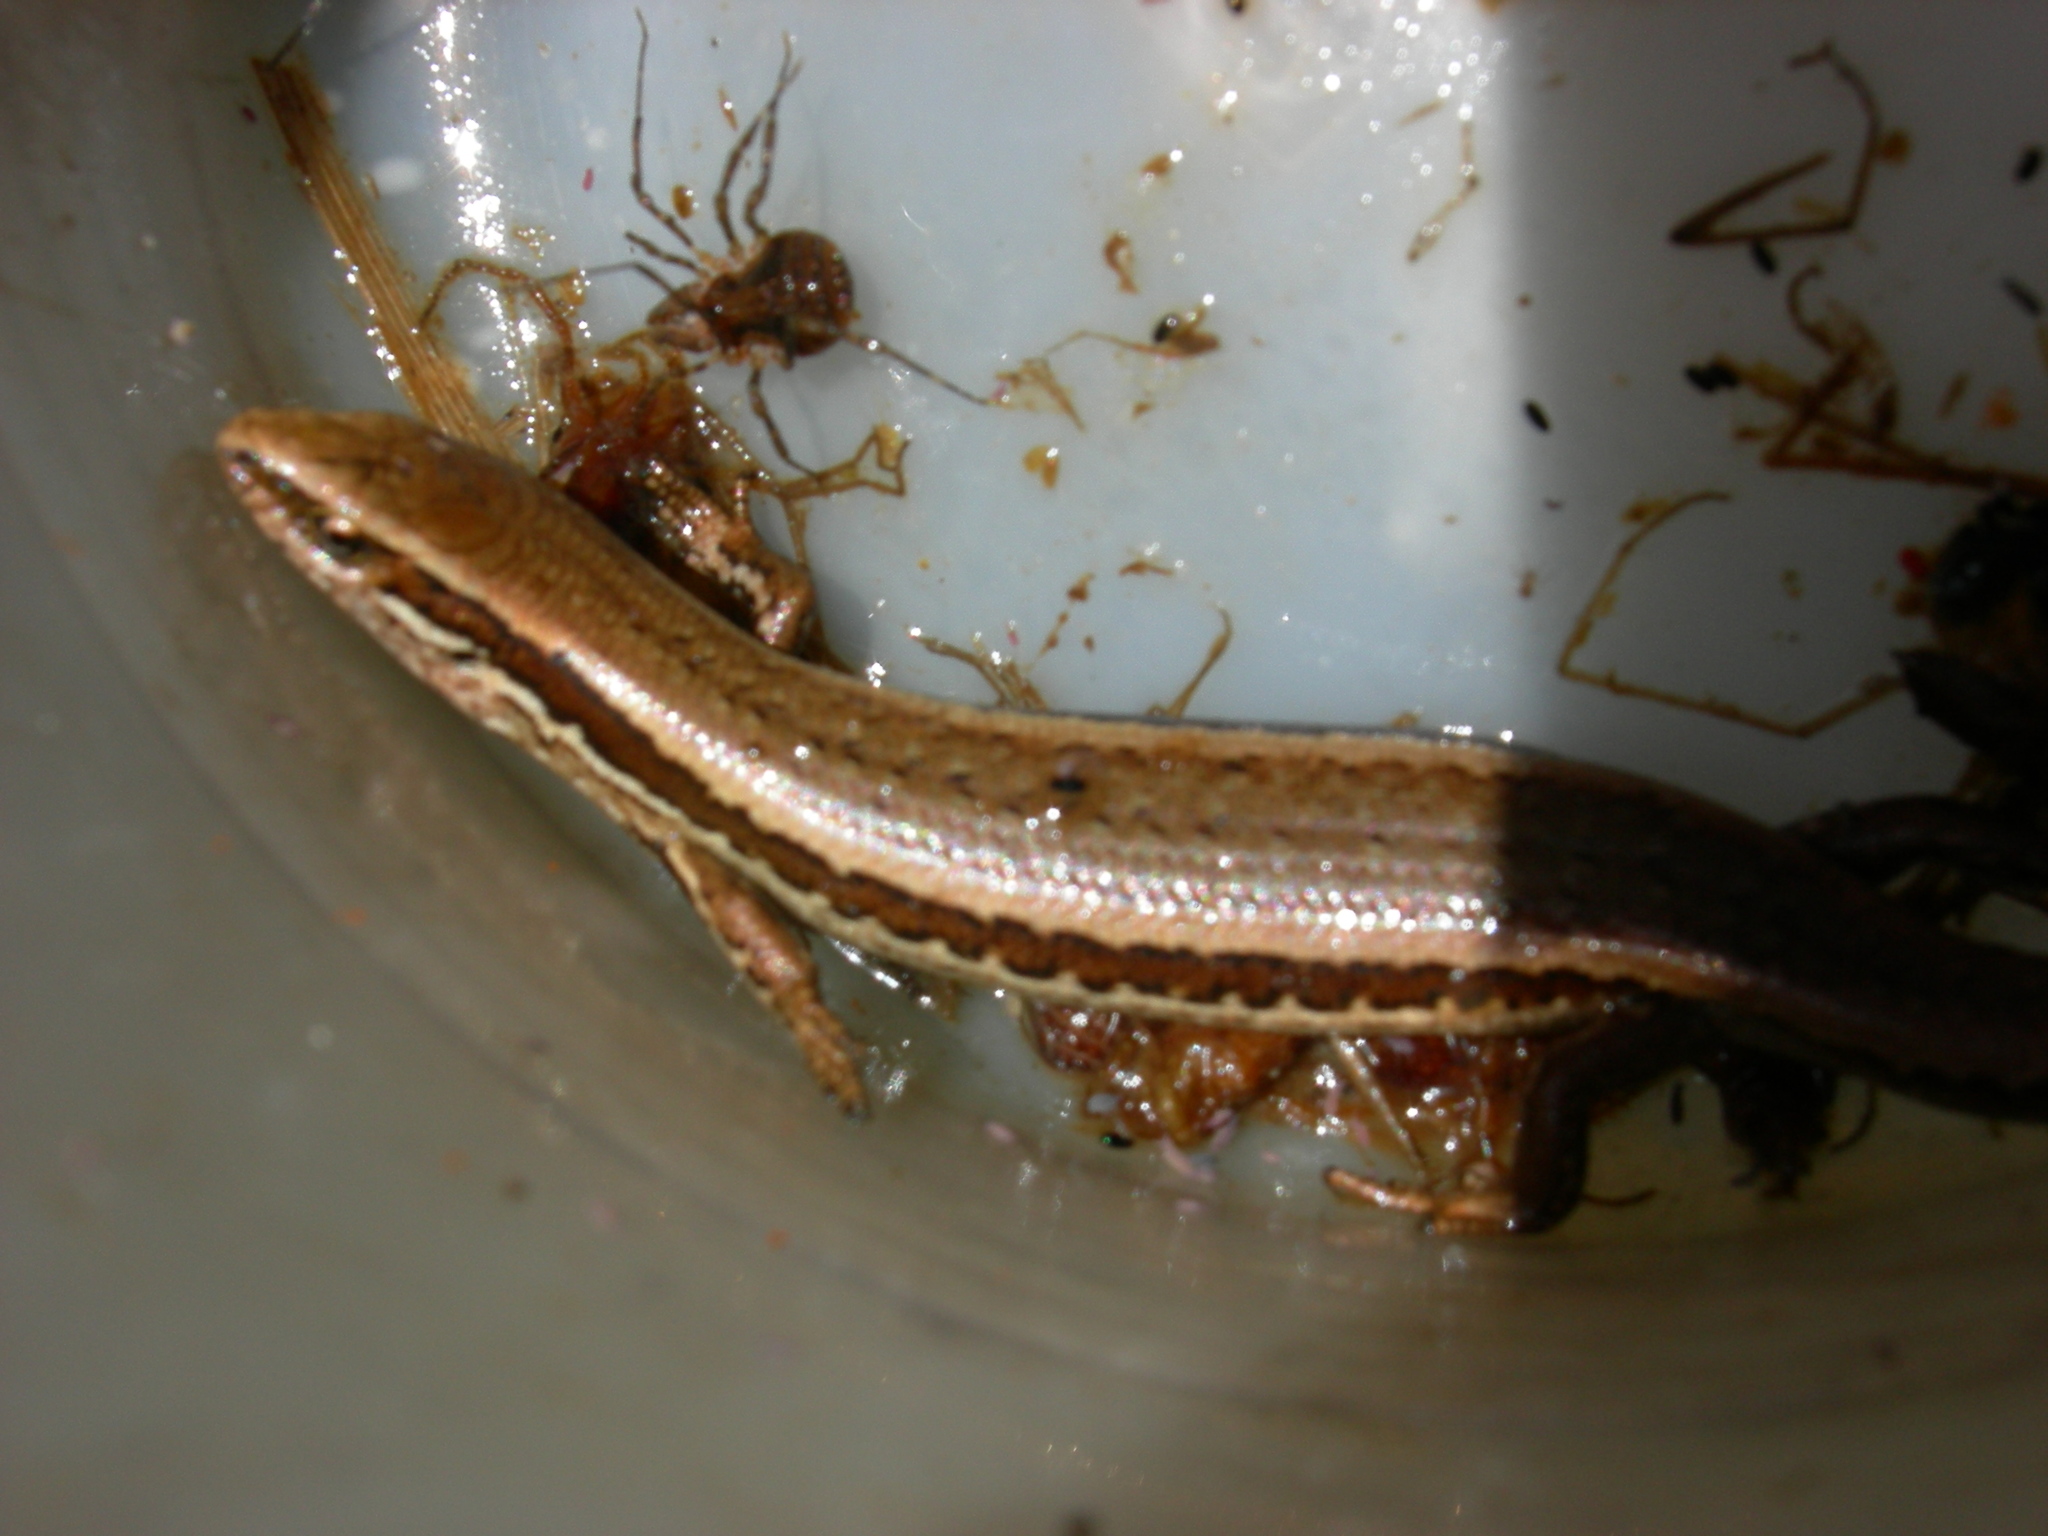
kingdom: Animalia
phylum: Chordata
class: Squamata
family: Scincidae
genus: Oligosoma
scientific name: Oligosoma polychroma
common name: Common new zealand skink
